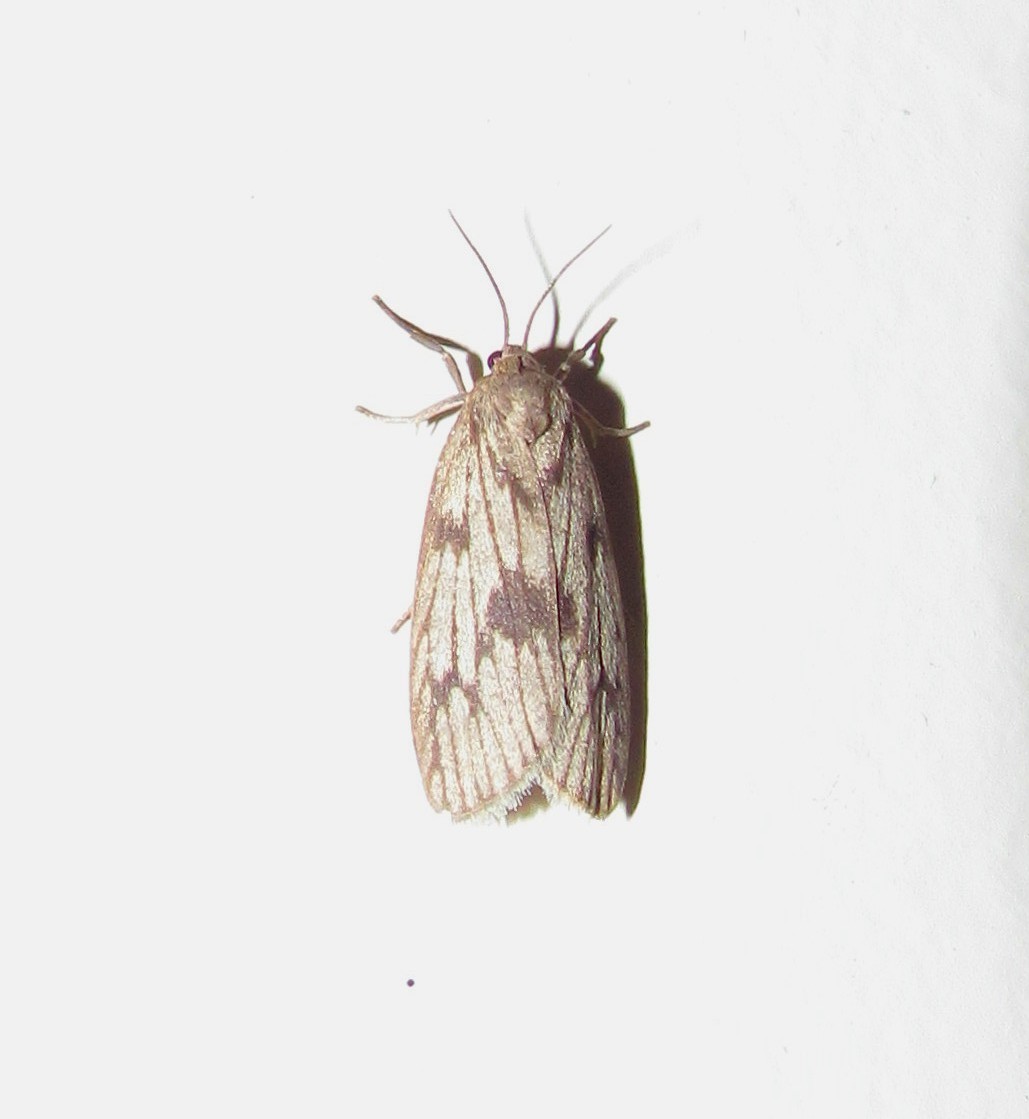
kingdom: Animalia
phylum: Arthropoda
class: Insecta
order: Lepidoptera
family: Erebidae
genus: Euthyone
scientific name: Euthyone celenna
